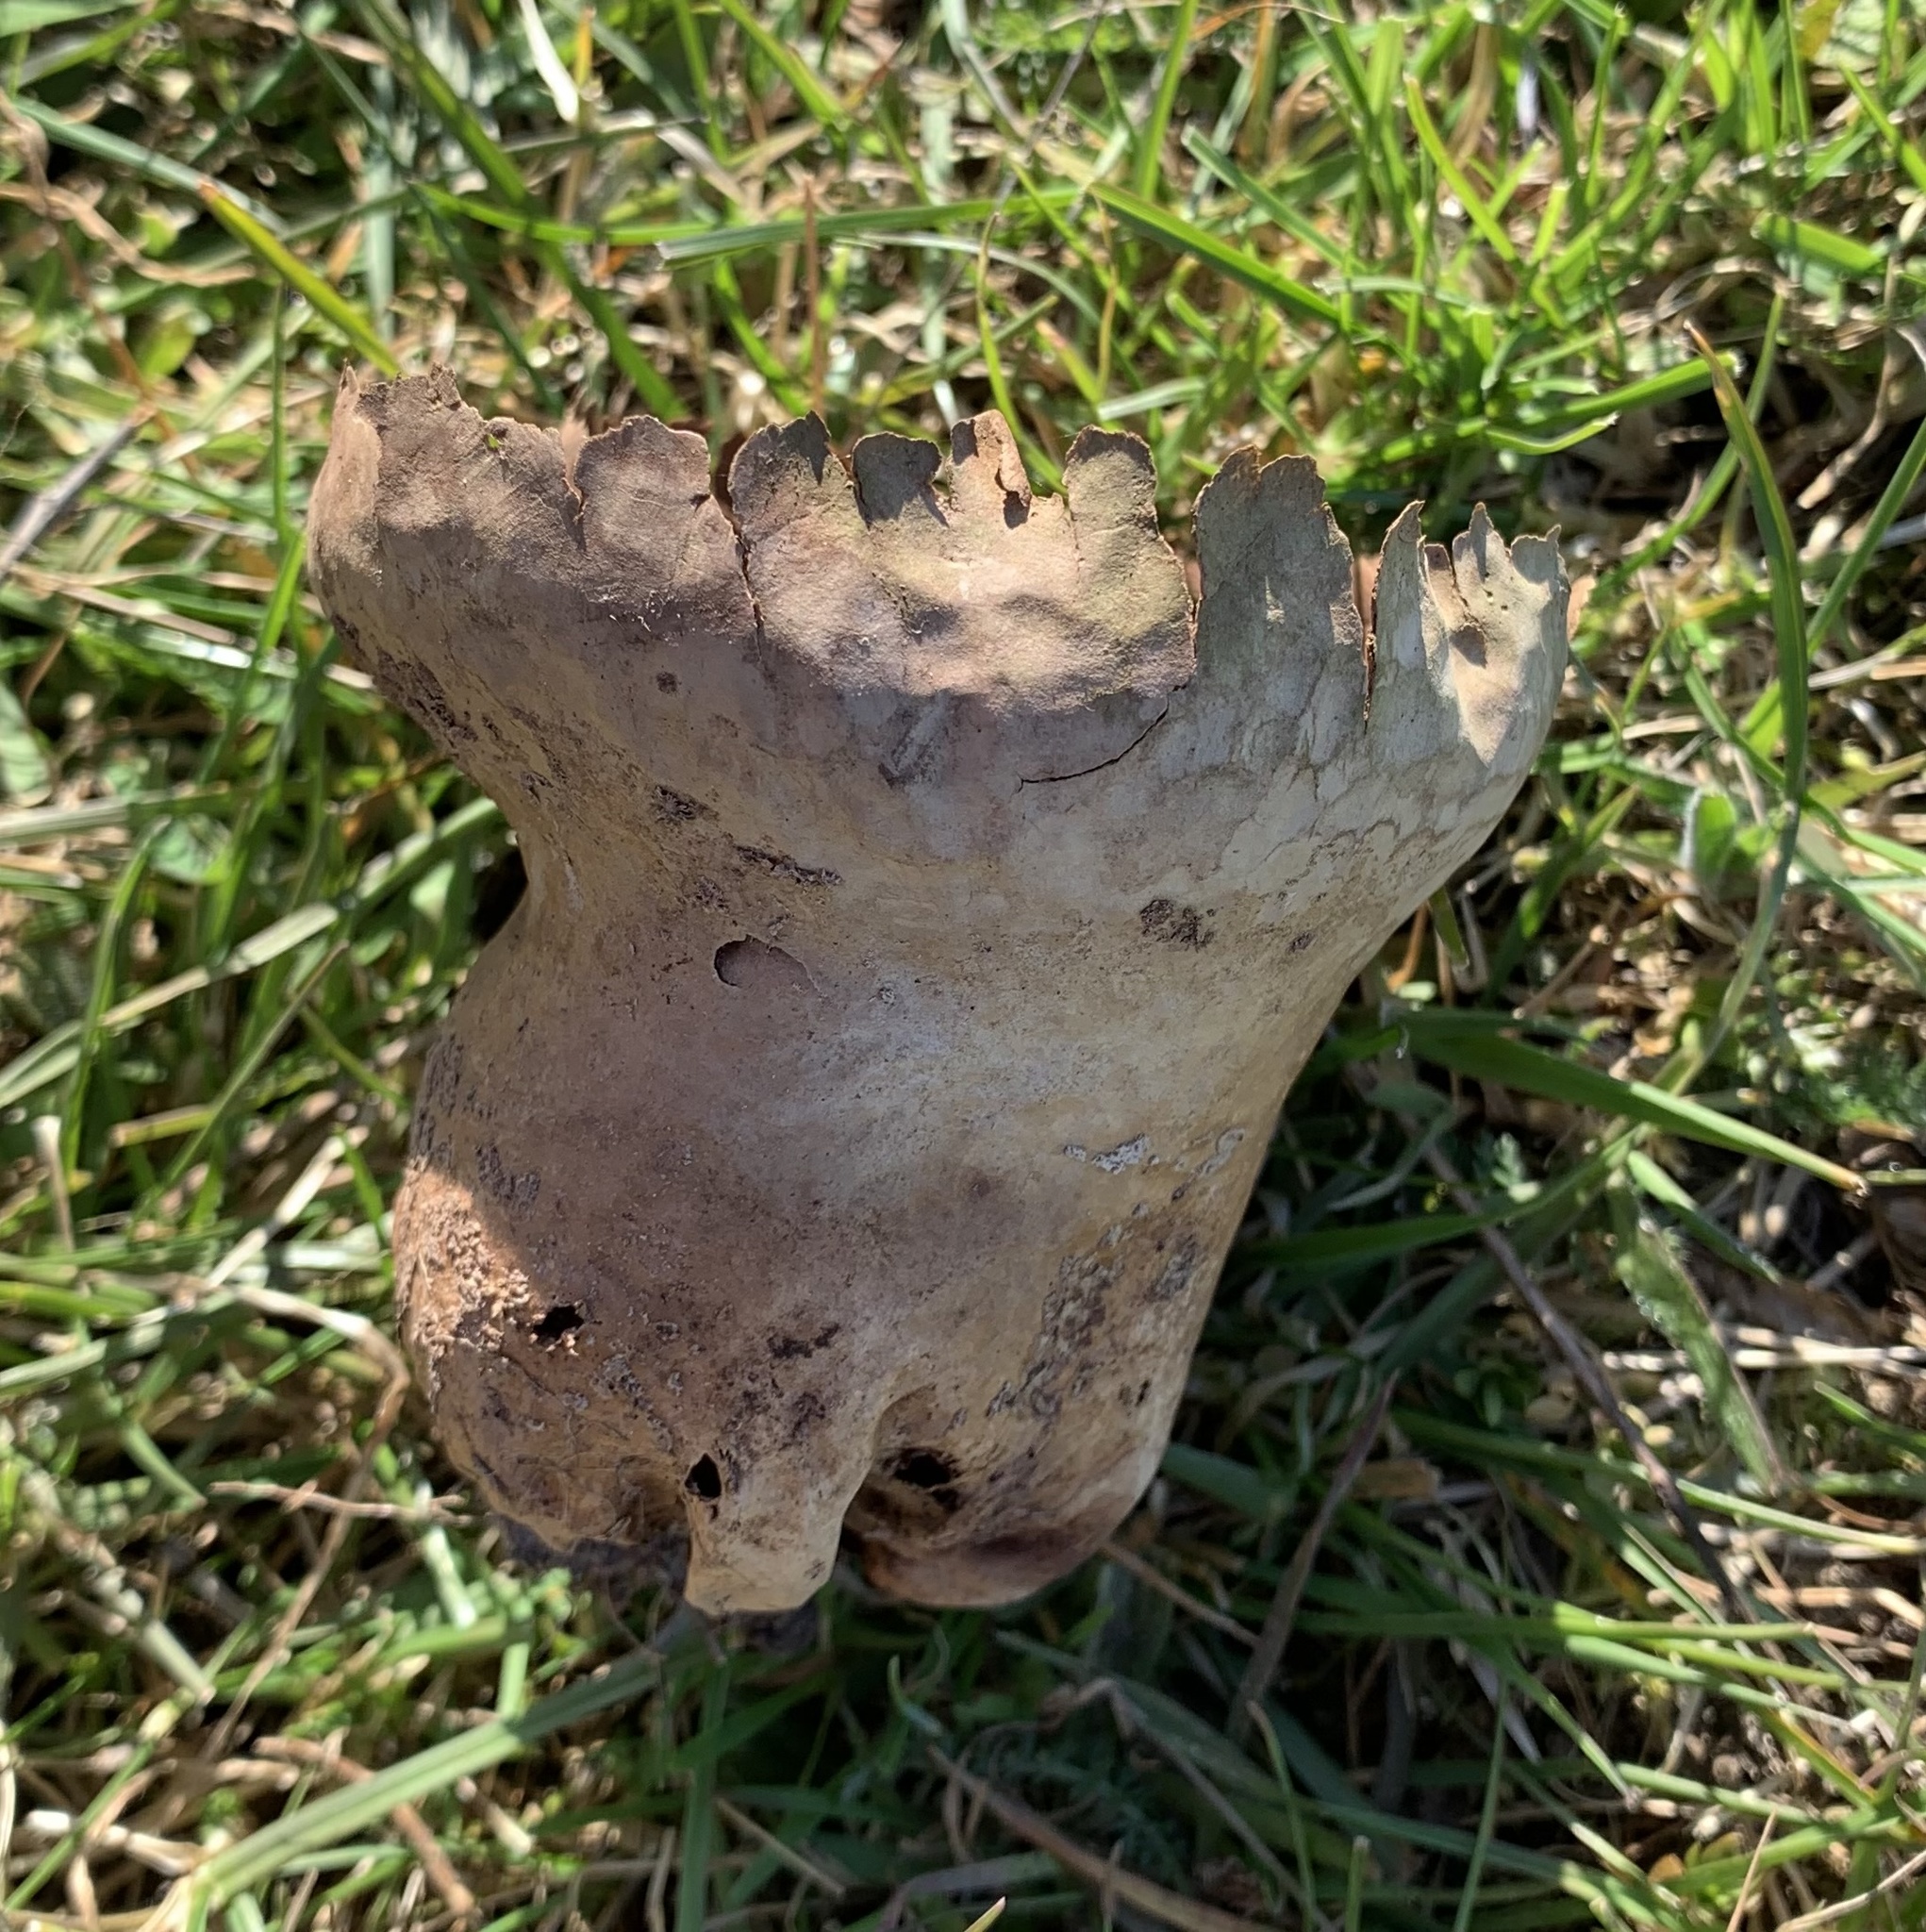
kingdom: Fungi
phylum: Basidiomycota
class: Agaricomycetes
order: Agaricales
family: Lycoperdaceae
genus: Bovistella
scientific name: Bovistella utriformis
